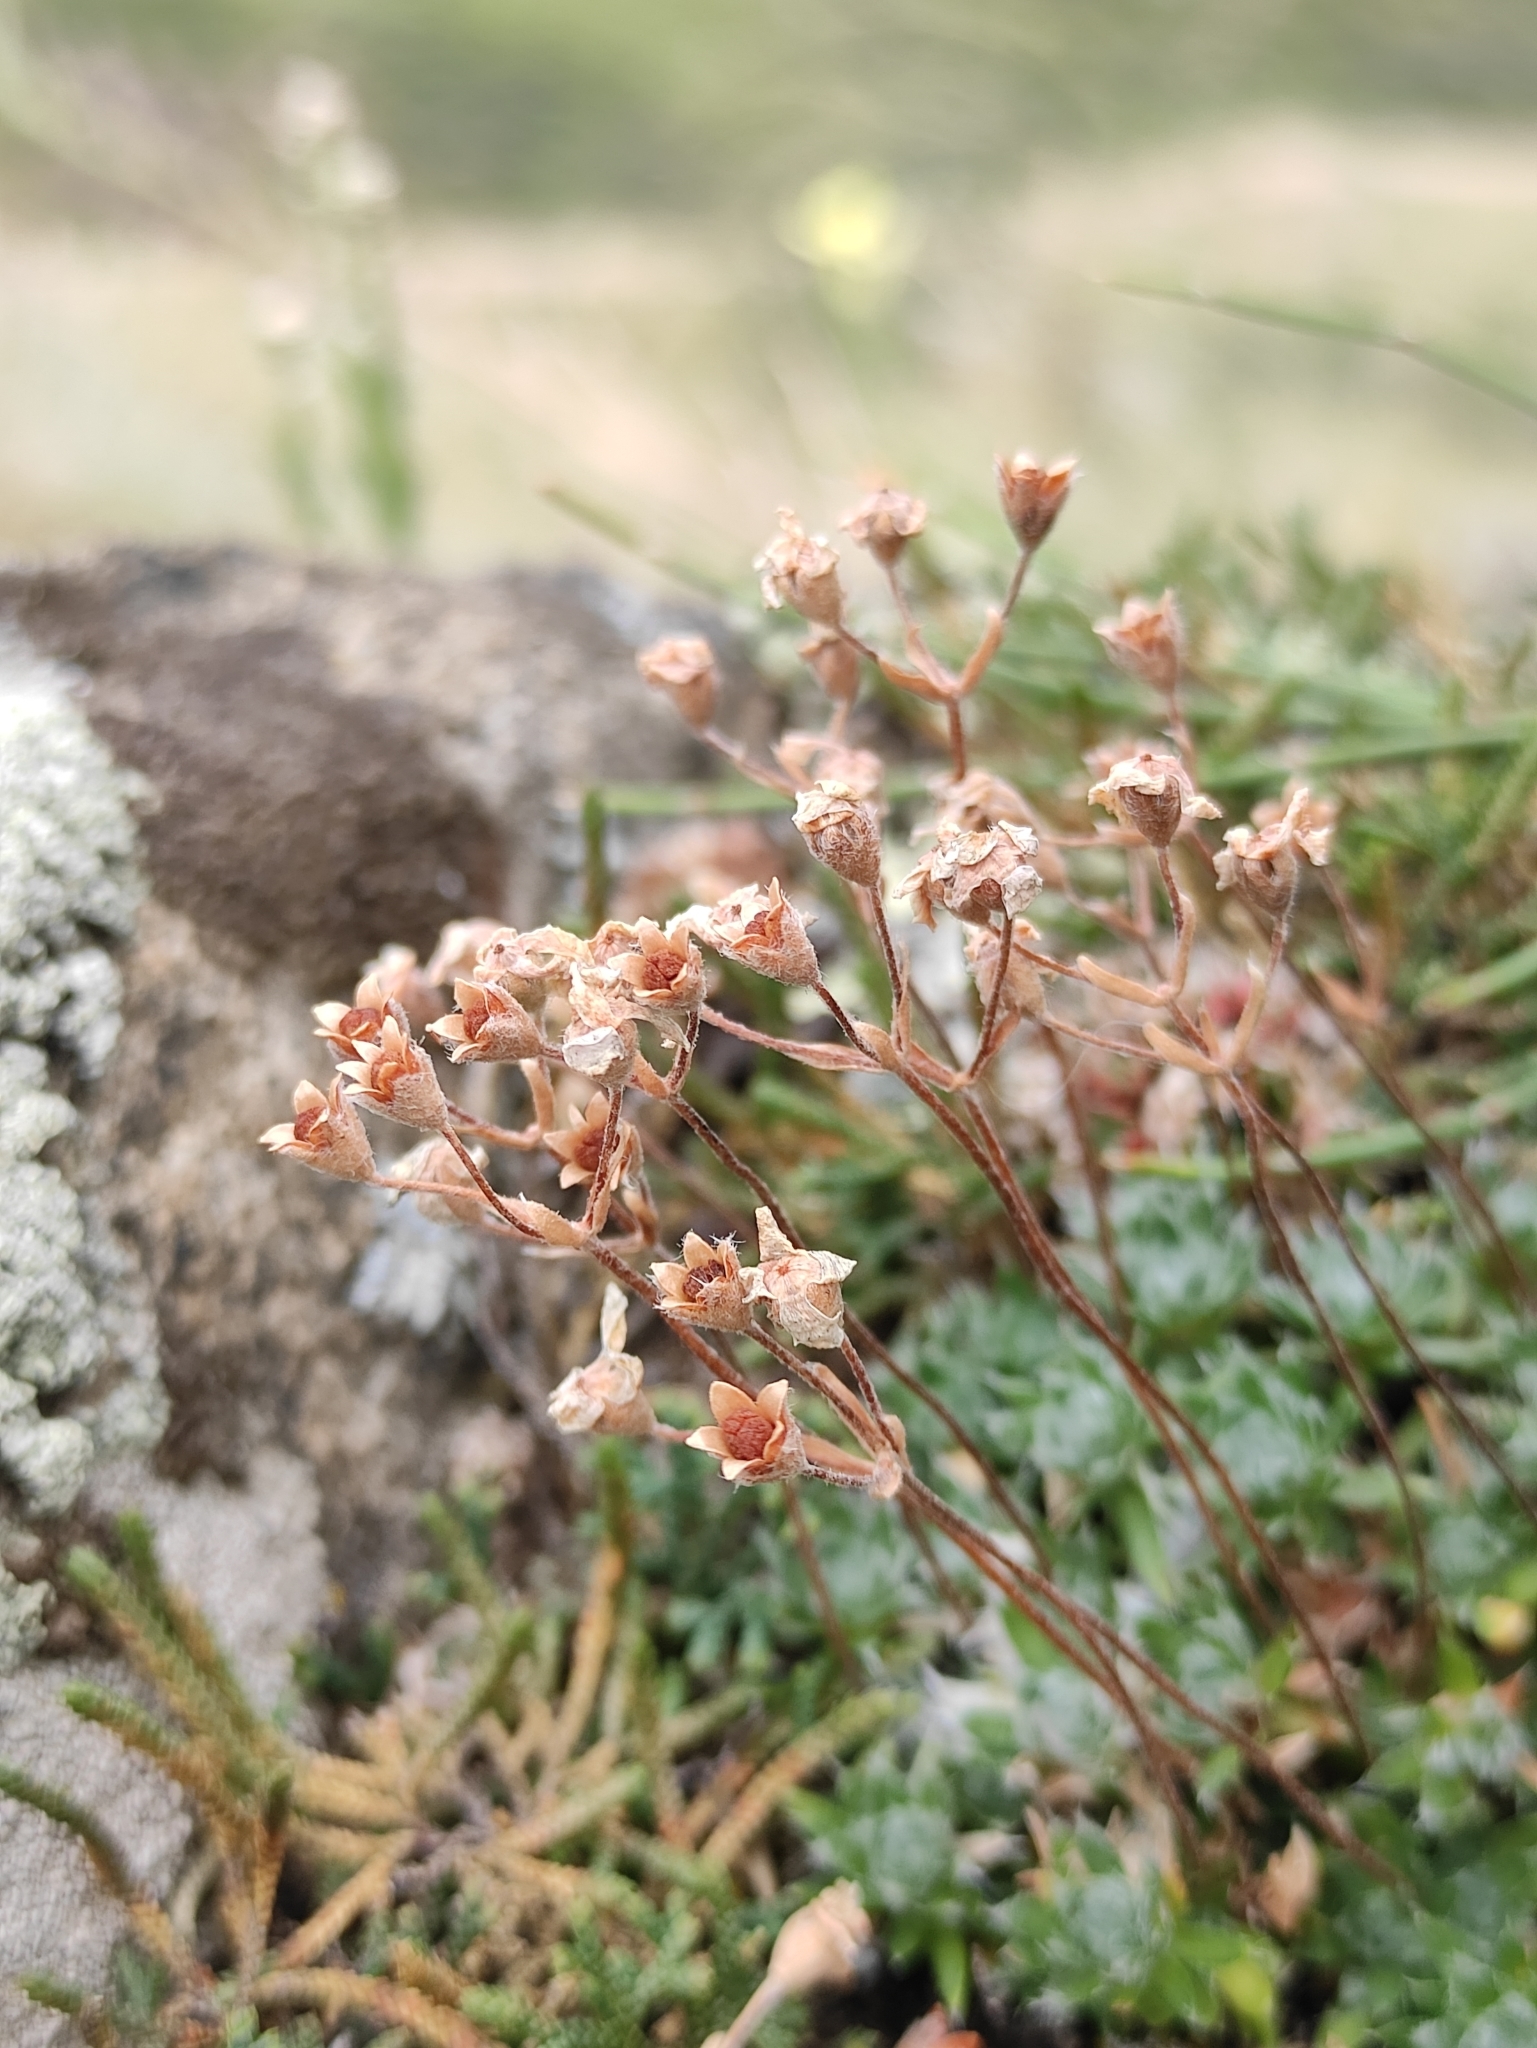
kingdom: Plantae
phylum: Tracheophyta
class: Magnoliopsida
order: Ericales
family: Primulaceae
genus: Androsace
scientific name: Androsace incana
